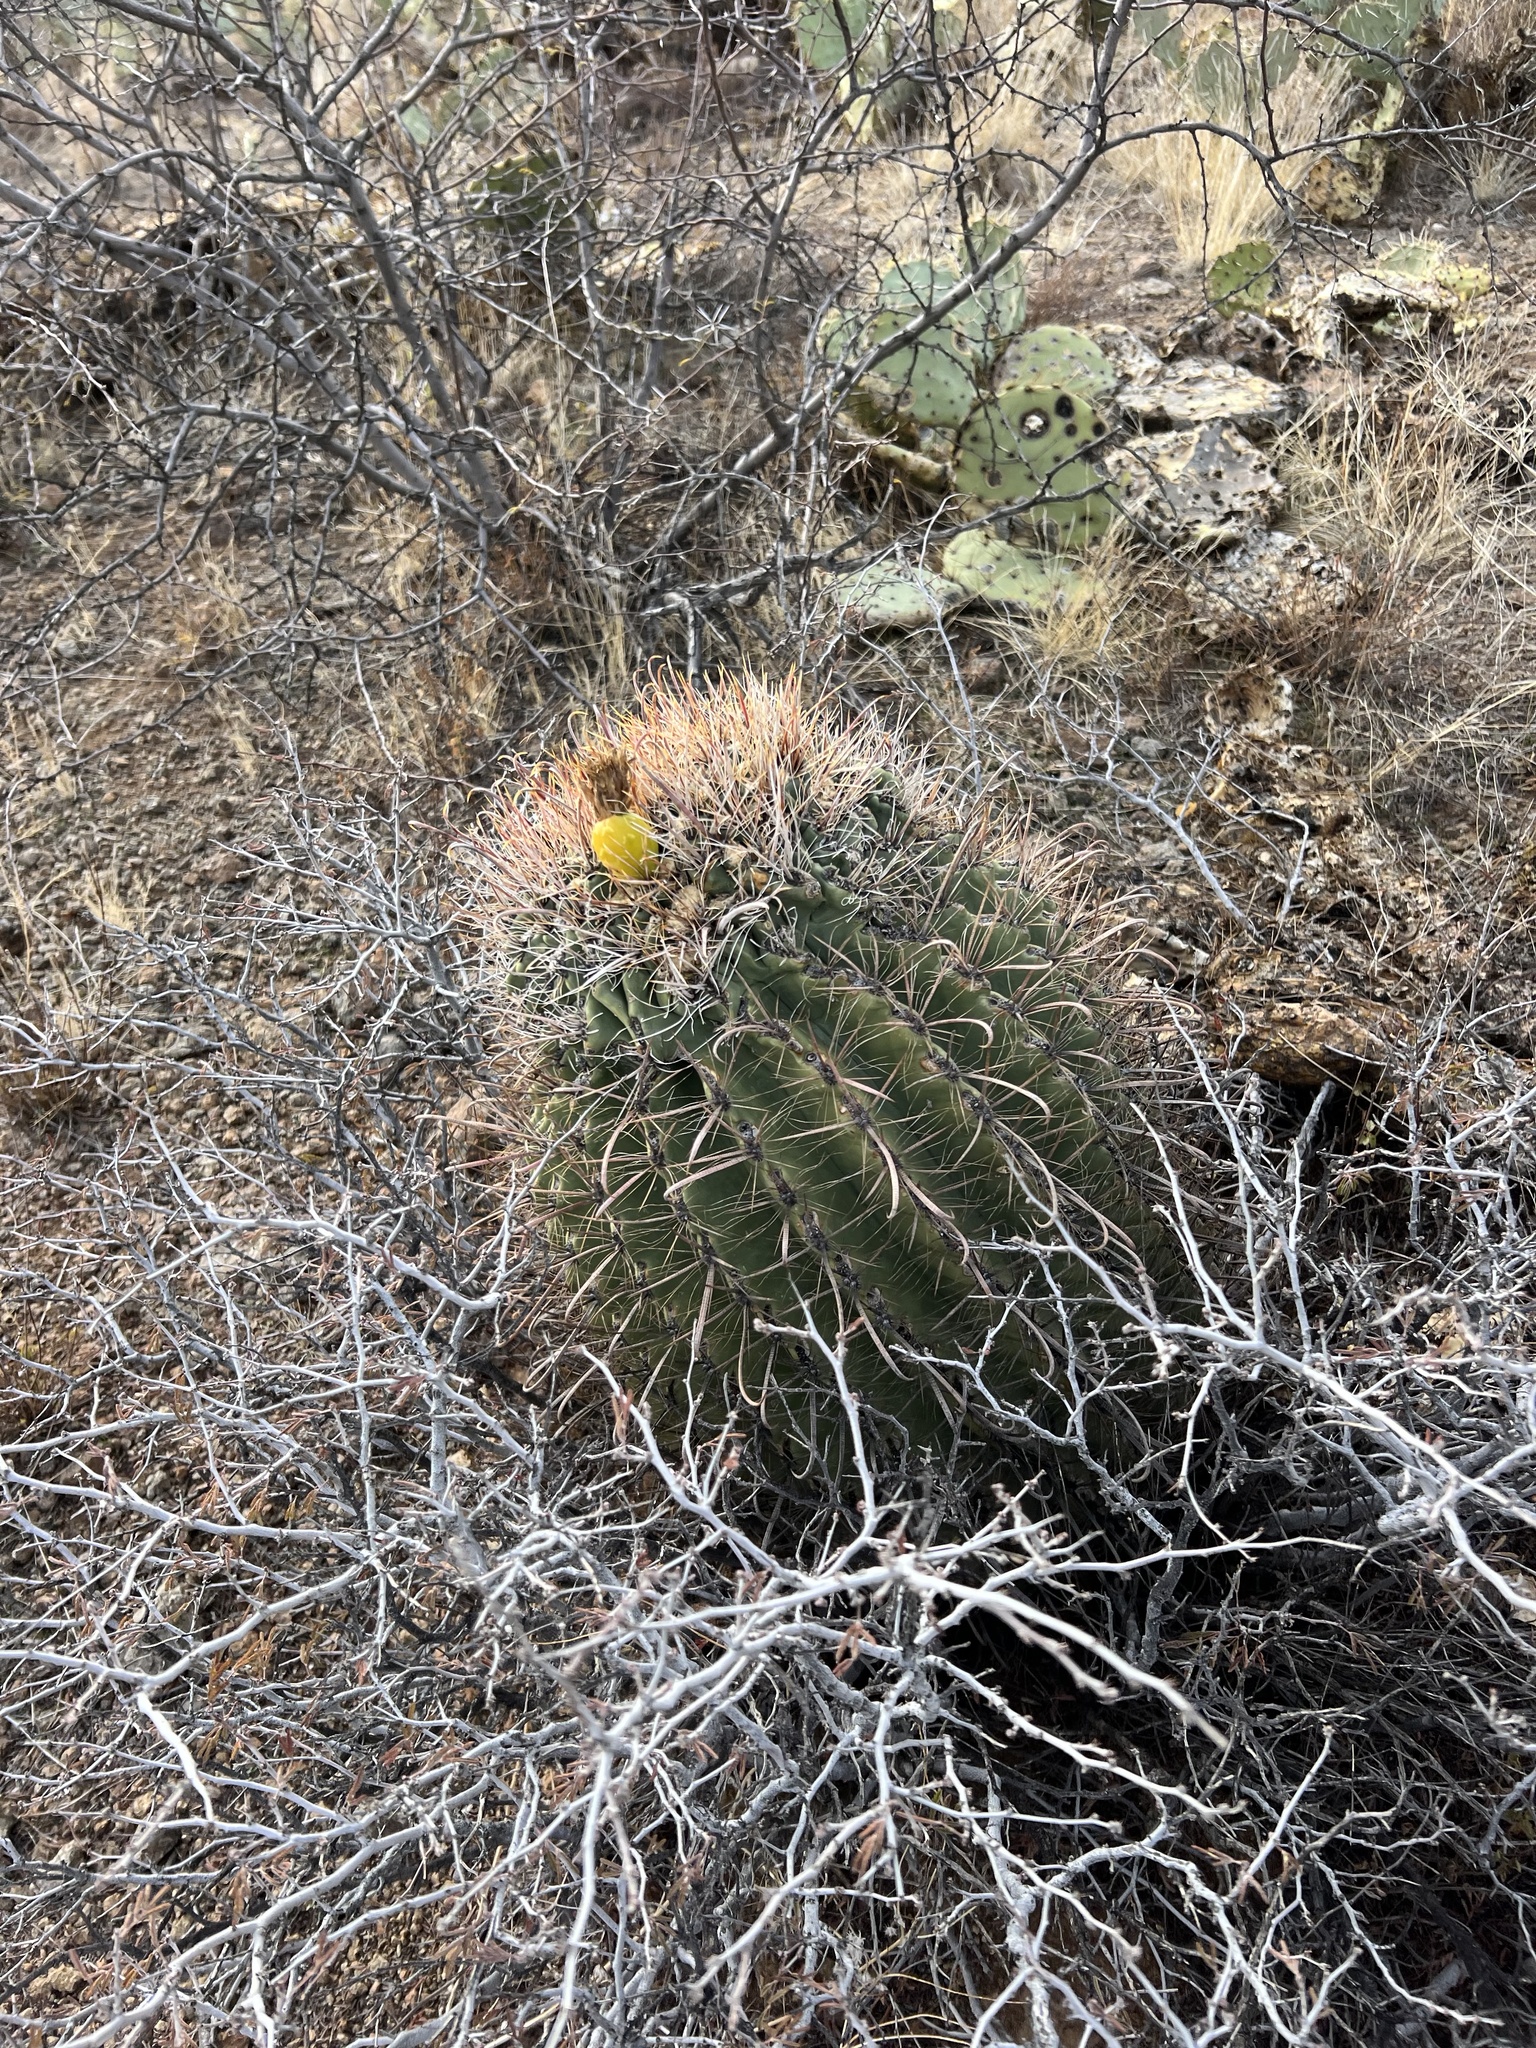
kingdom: Plantae
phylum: Tracheophyta
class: Magnoliopsida
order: Caryophyllales
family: Cactaceae
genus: Ferocactus
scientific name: Ferocactus wislizeni
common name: Candy barrel cactus
